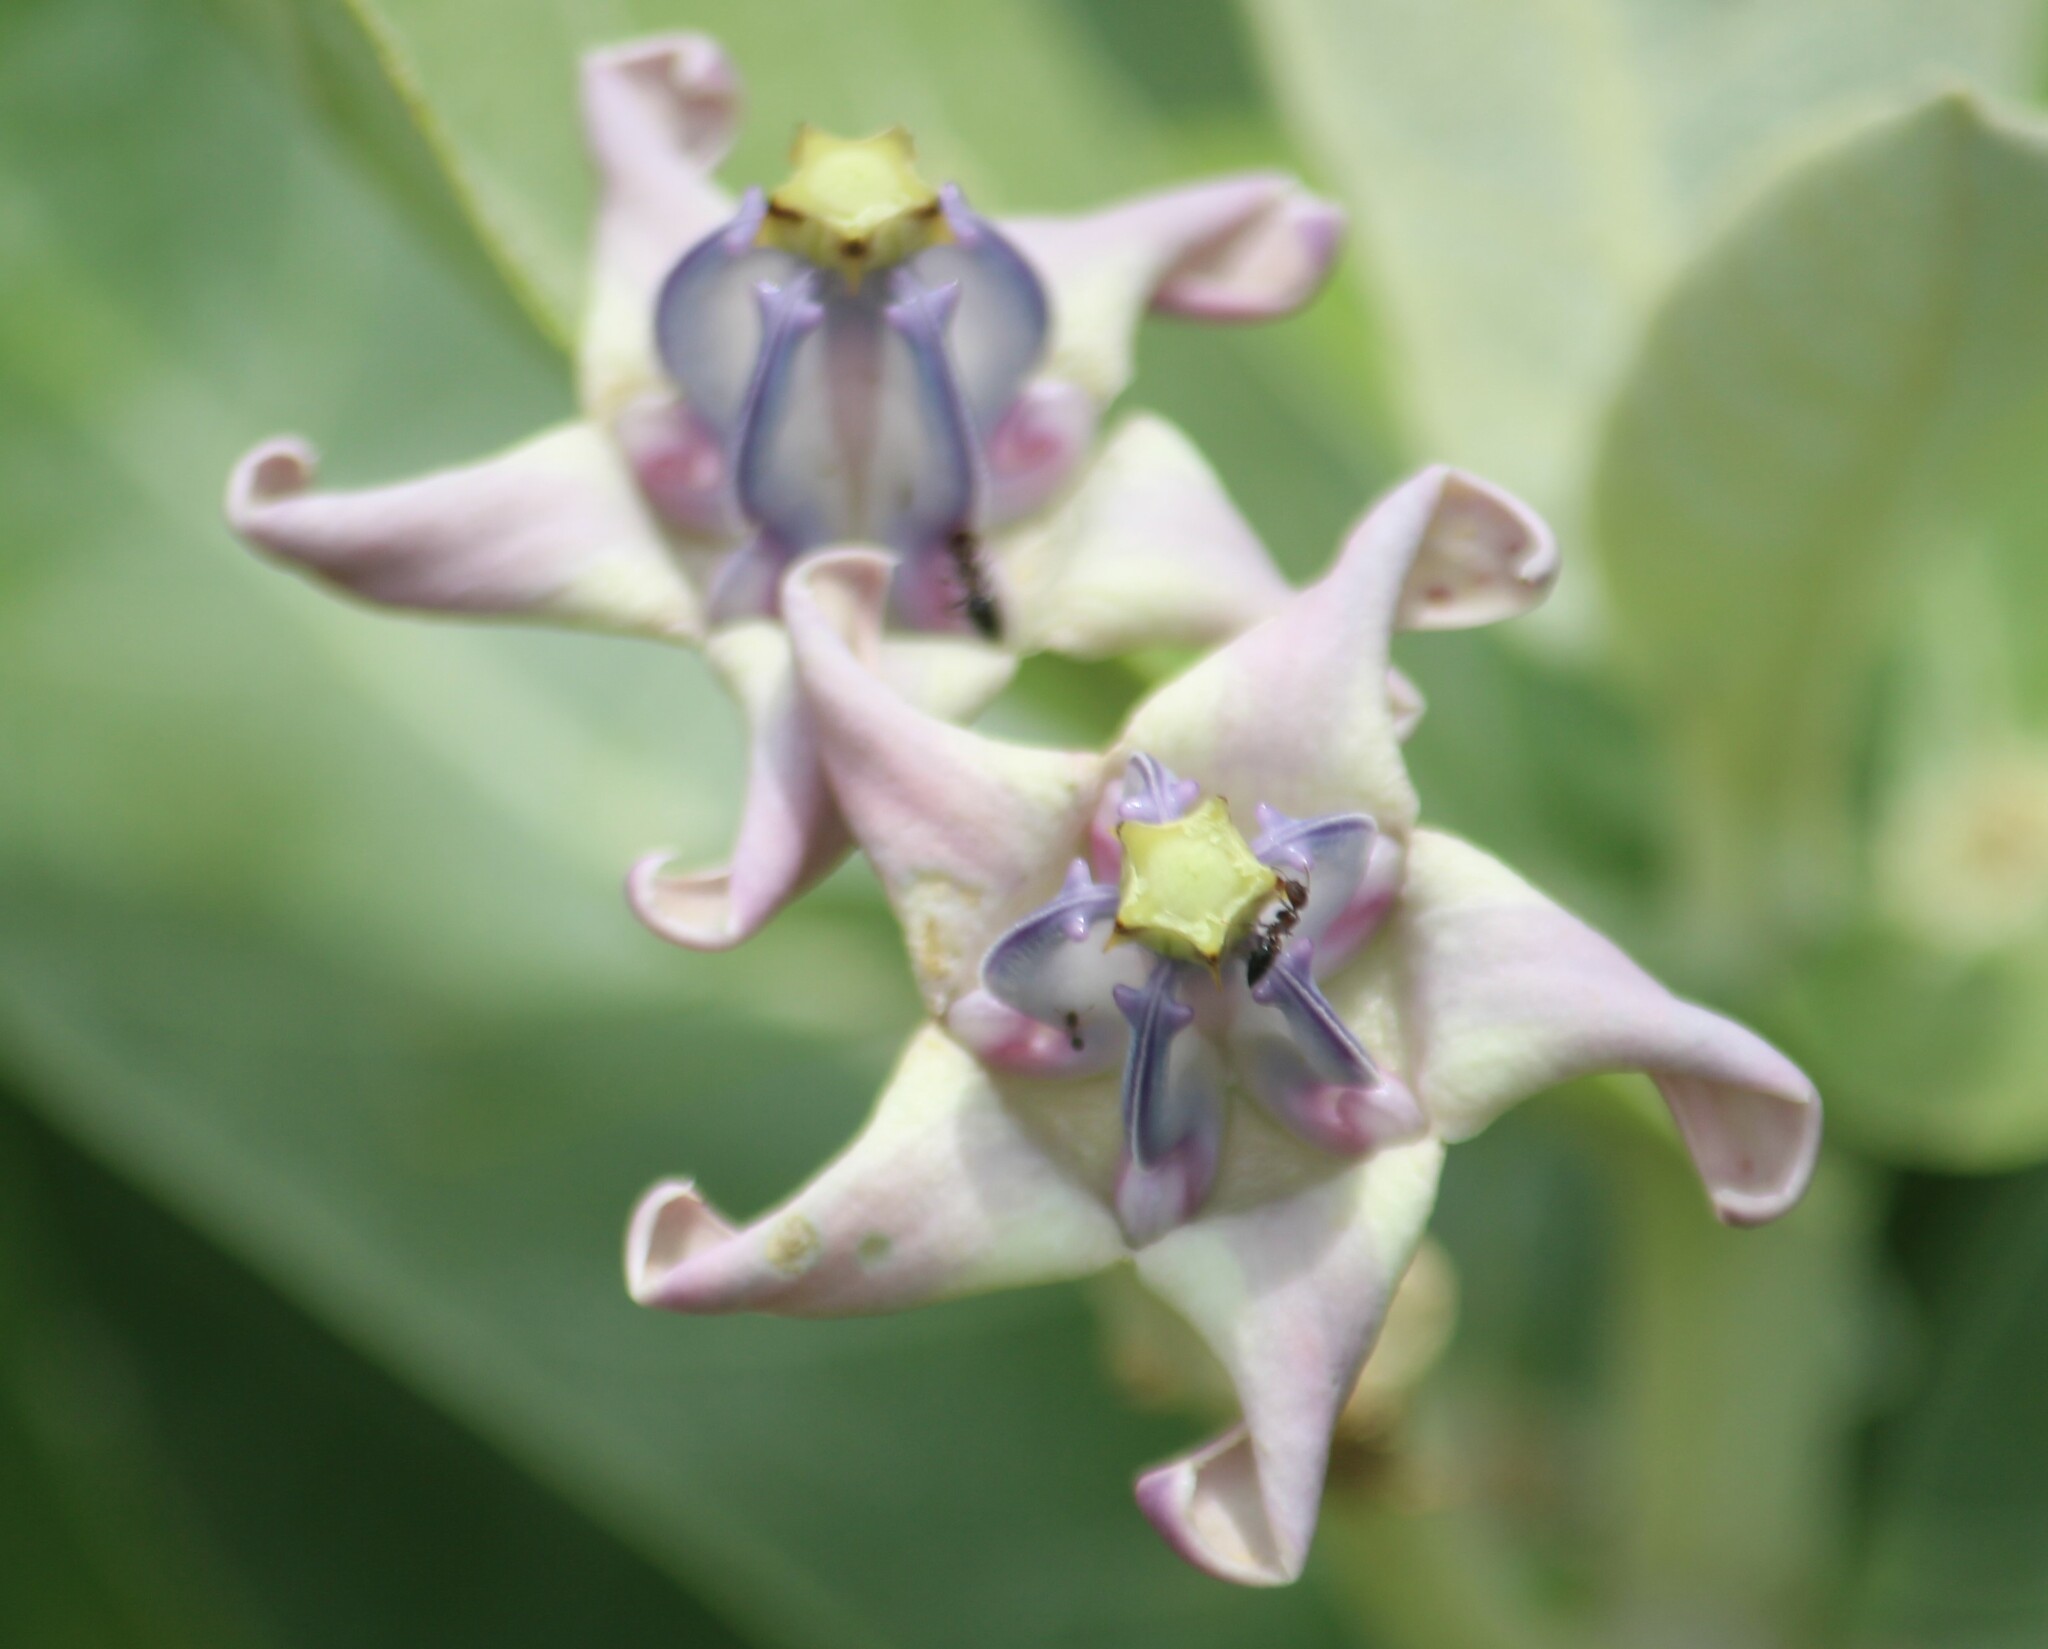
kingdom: Plantae
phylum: Tracheophyta
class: Magnoliopsida
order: Gentianales
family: Apocynaceae
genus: Calotropis
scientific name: Calotropis gigantea
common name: Crown flower
